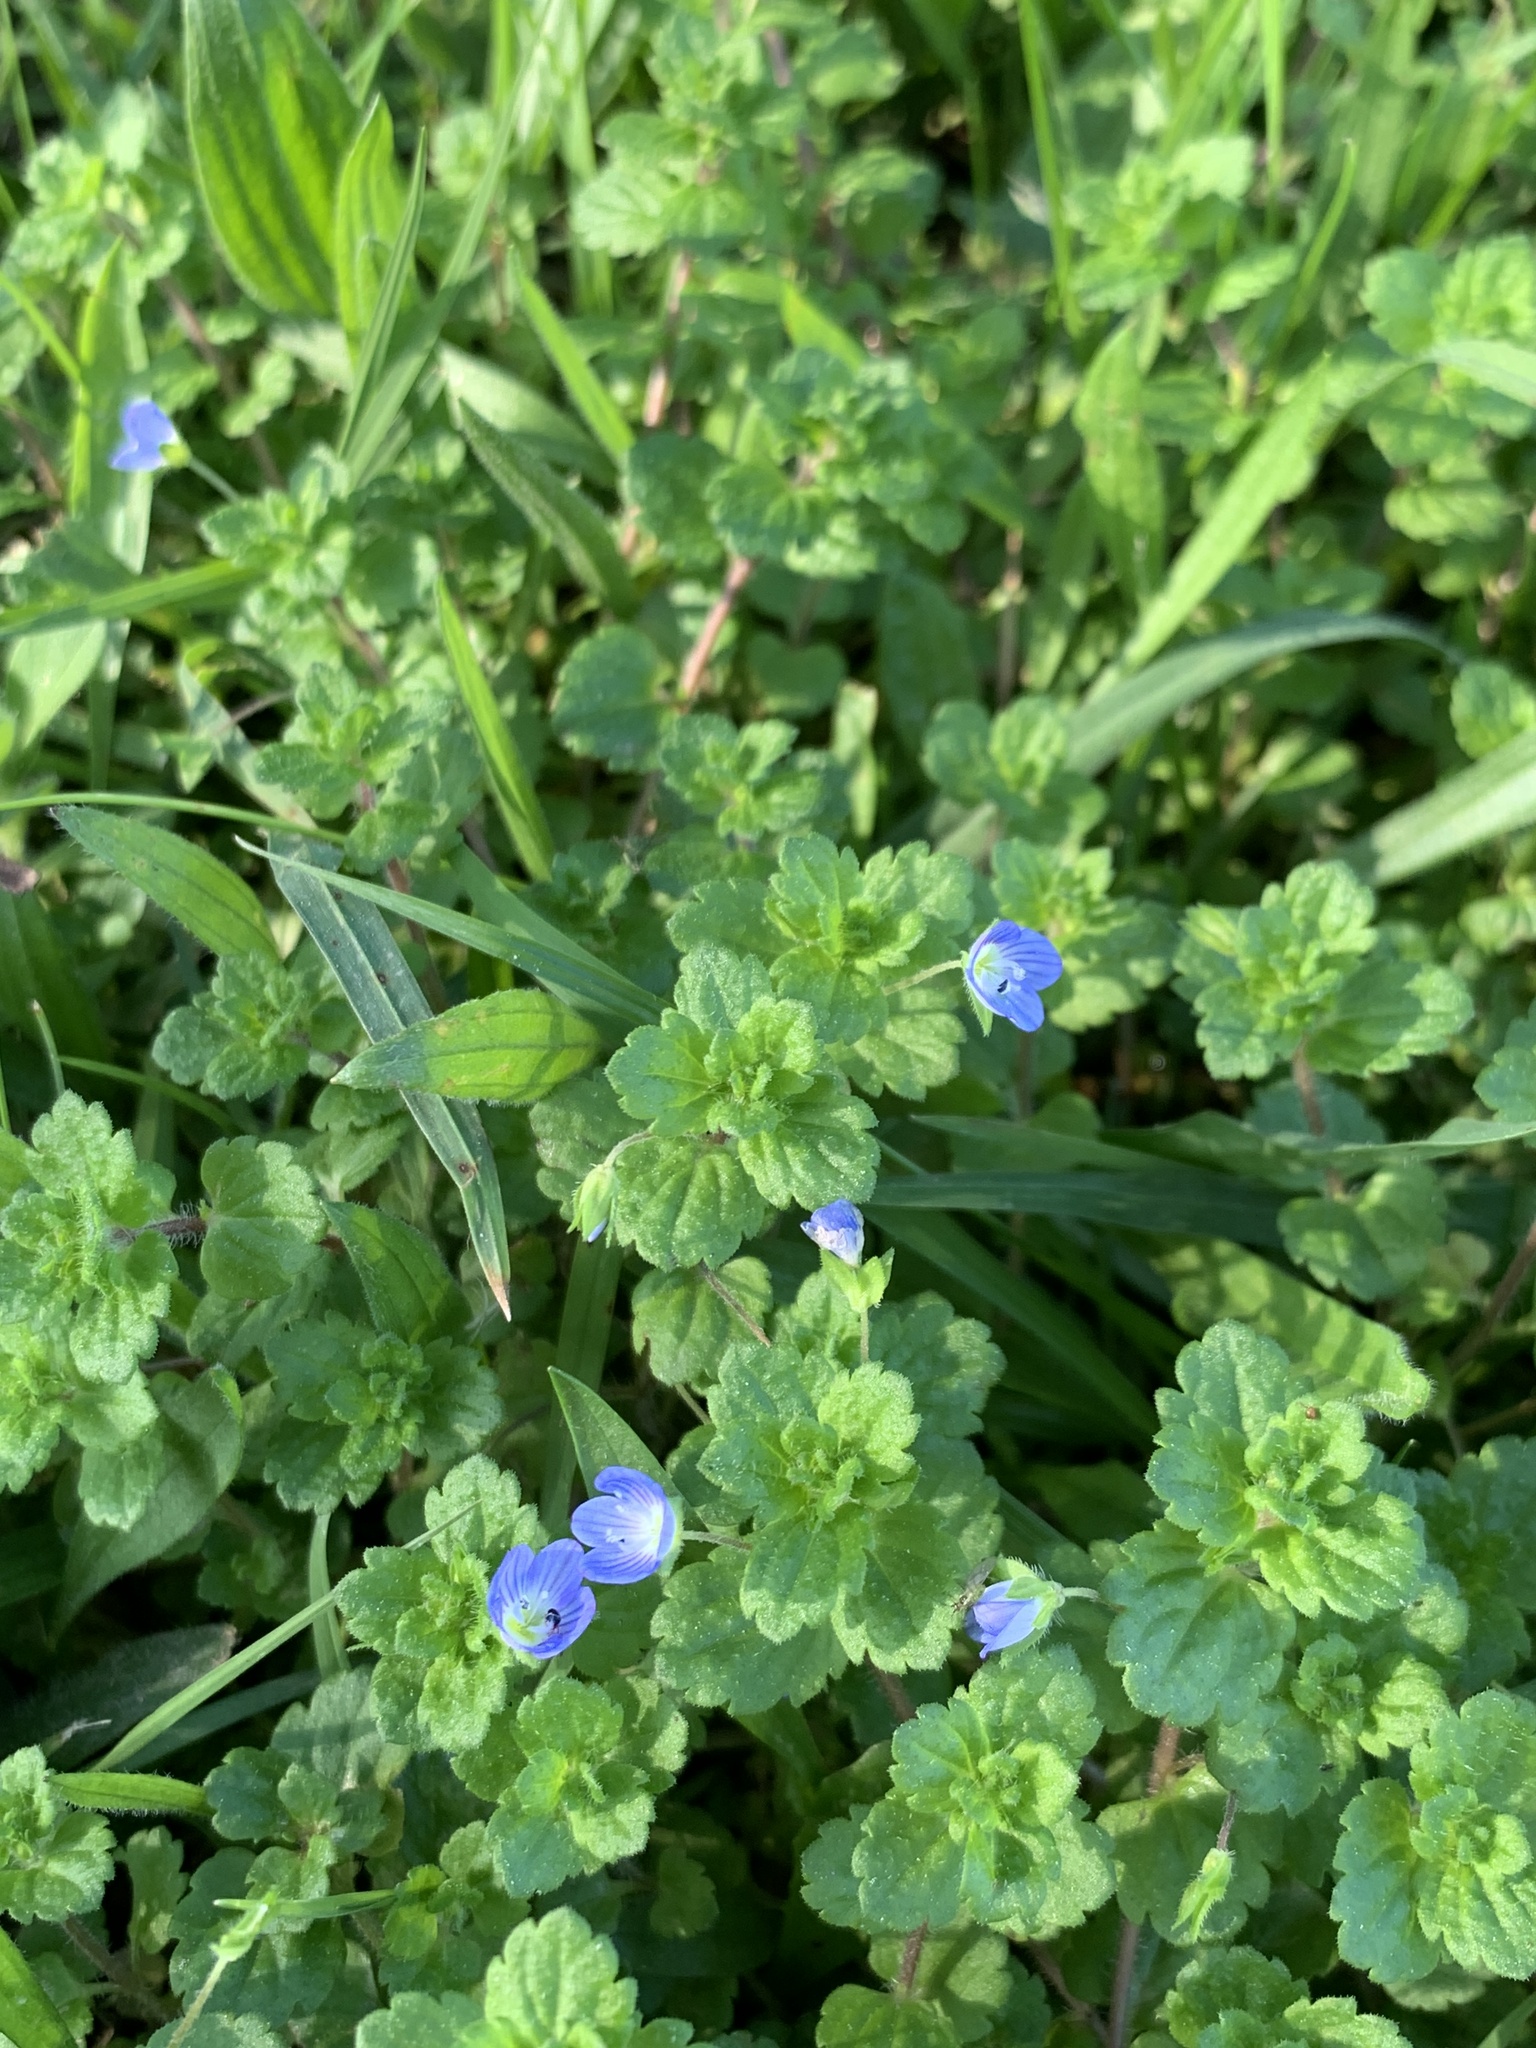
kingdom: Plantae
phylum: Tracheophyta
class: Magnoliopsida
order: Lamiales
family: Plantaginaceae
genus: Veronica
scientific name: Veronica persica
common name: Common field-speedwell
